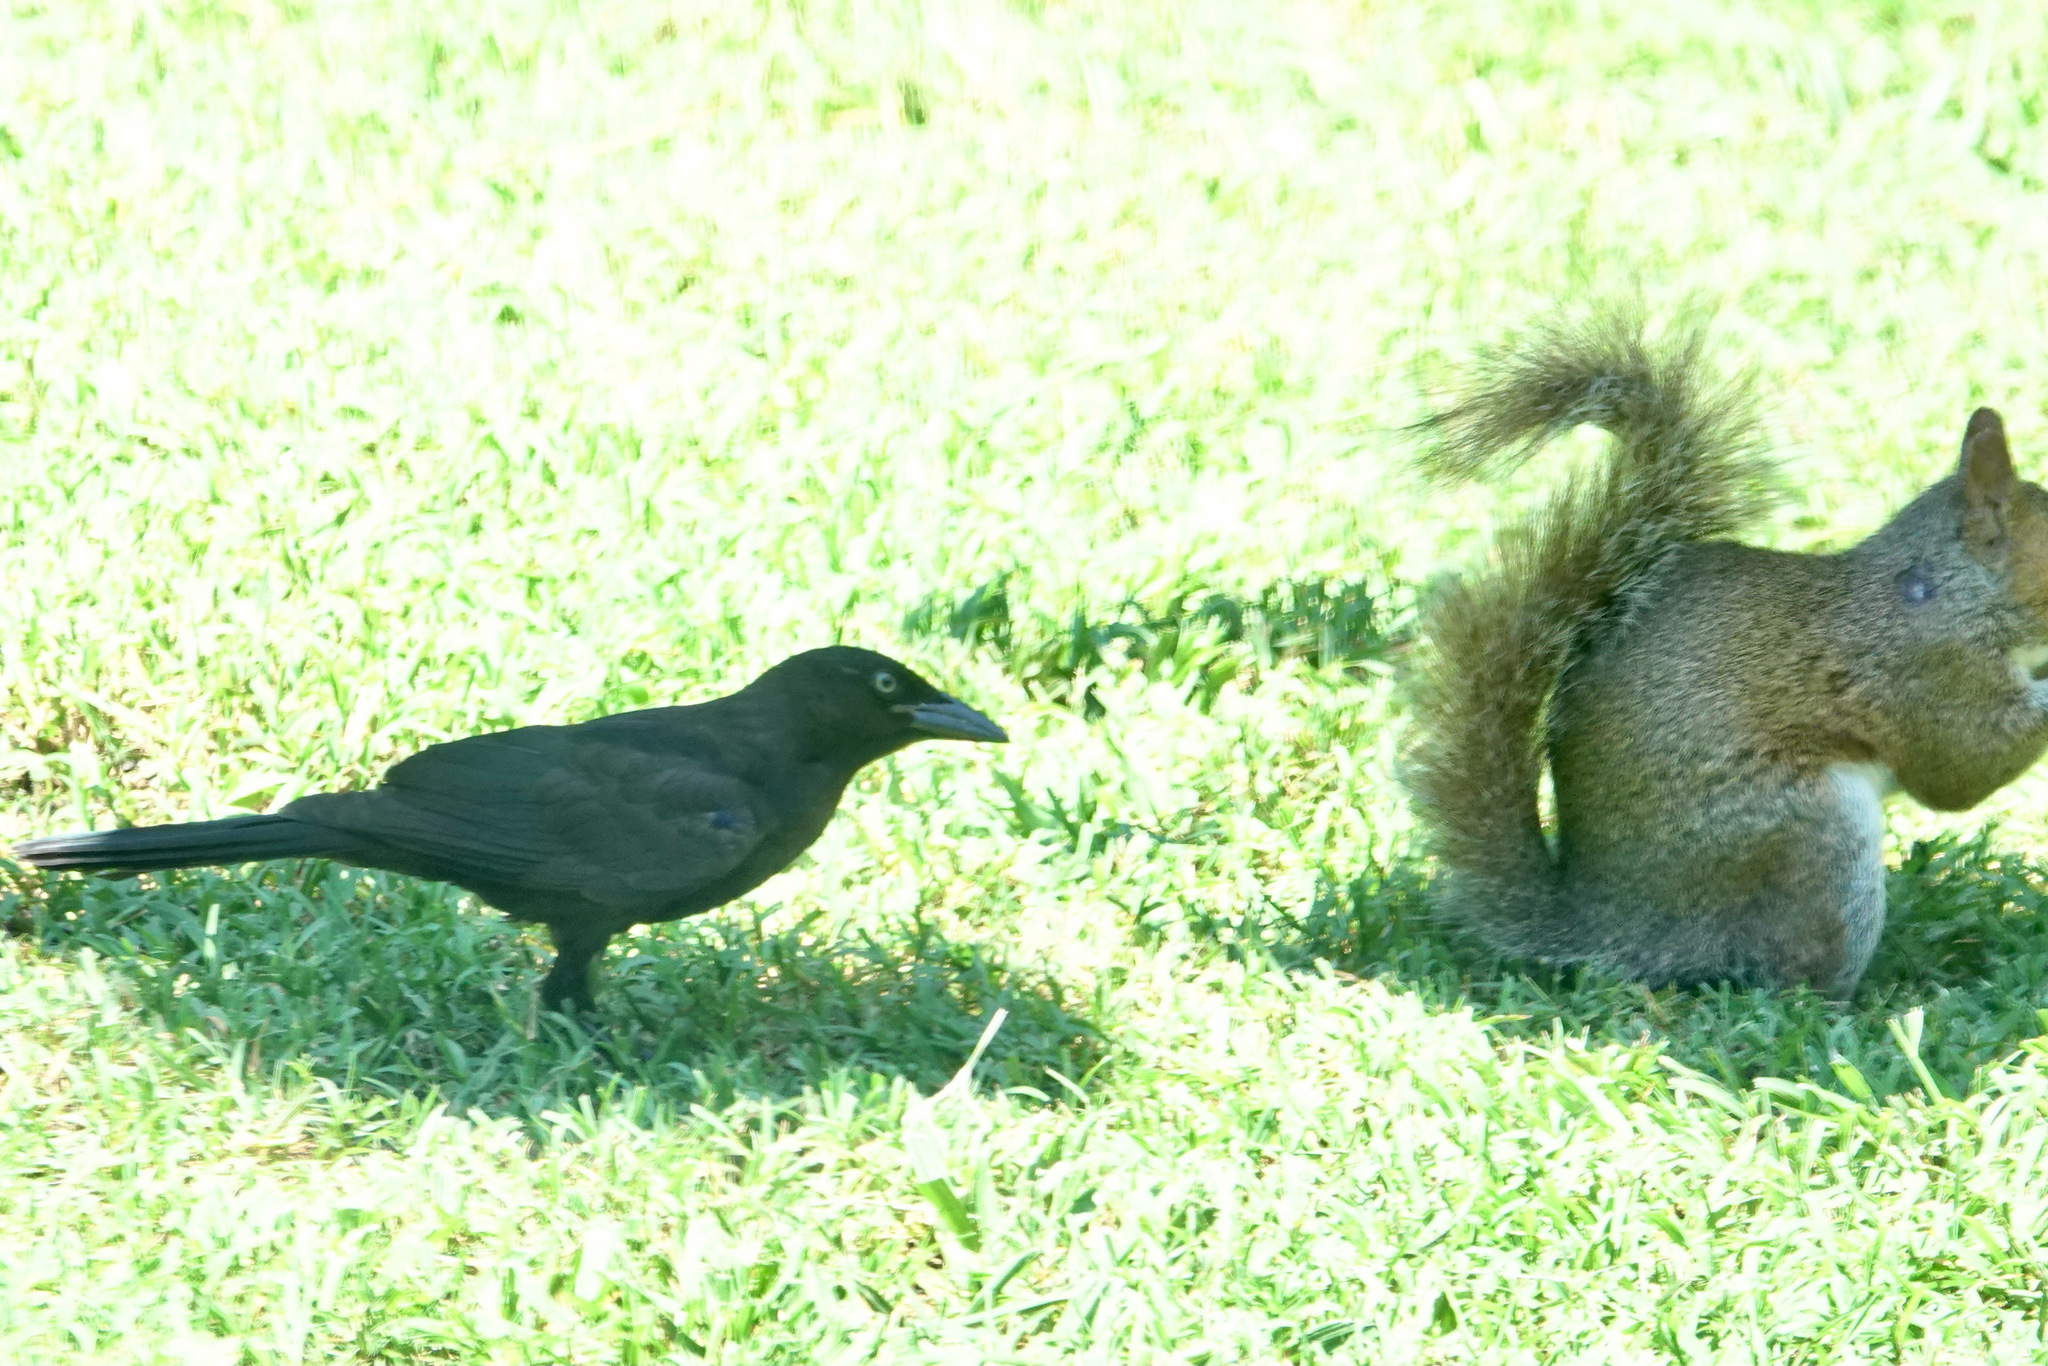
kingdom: Animalia
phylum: Chordata
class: Aves
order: Passeriformes
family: Icteridae
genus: Quiscalus
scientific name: Quiscalus quiscula
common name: Common grackle
